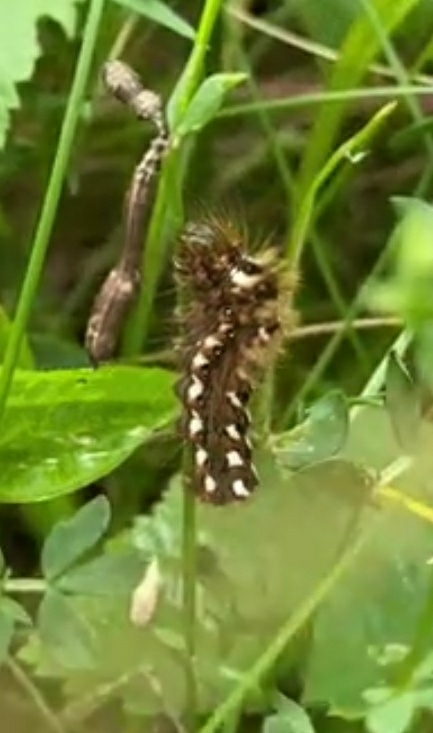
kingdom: Animalia
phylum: Arthropoda
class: Insecta
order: Lepidoptera
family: Noctuidae
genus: Acronicta
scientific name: Acronicta rumicis
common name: Knot grass
